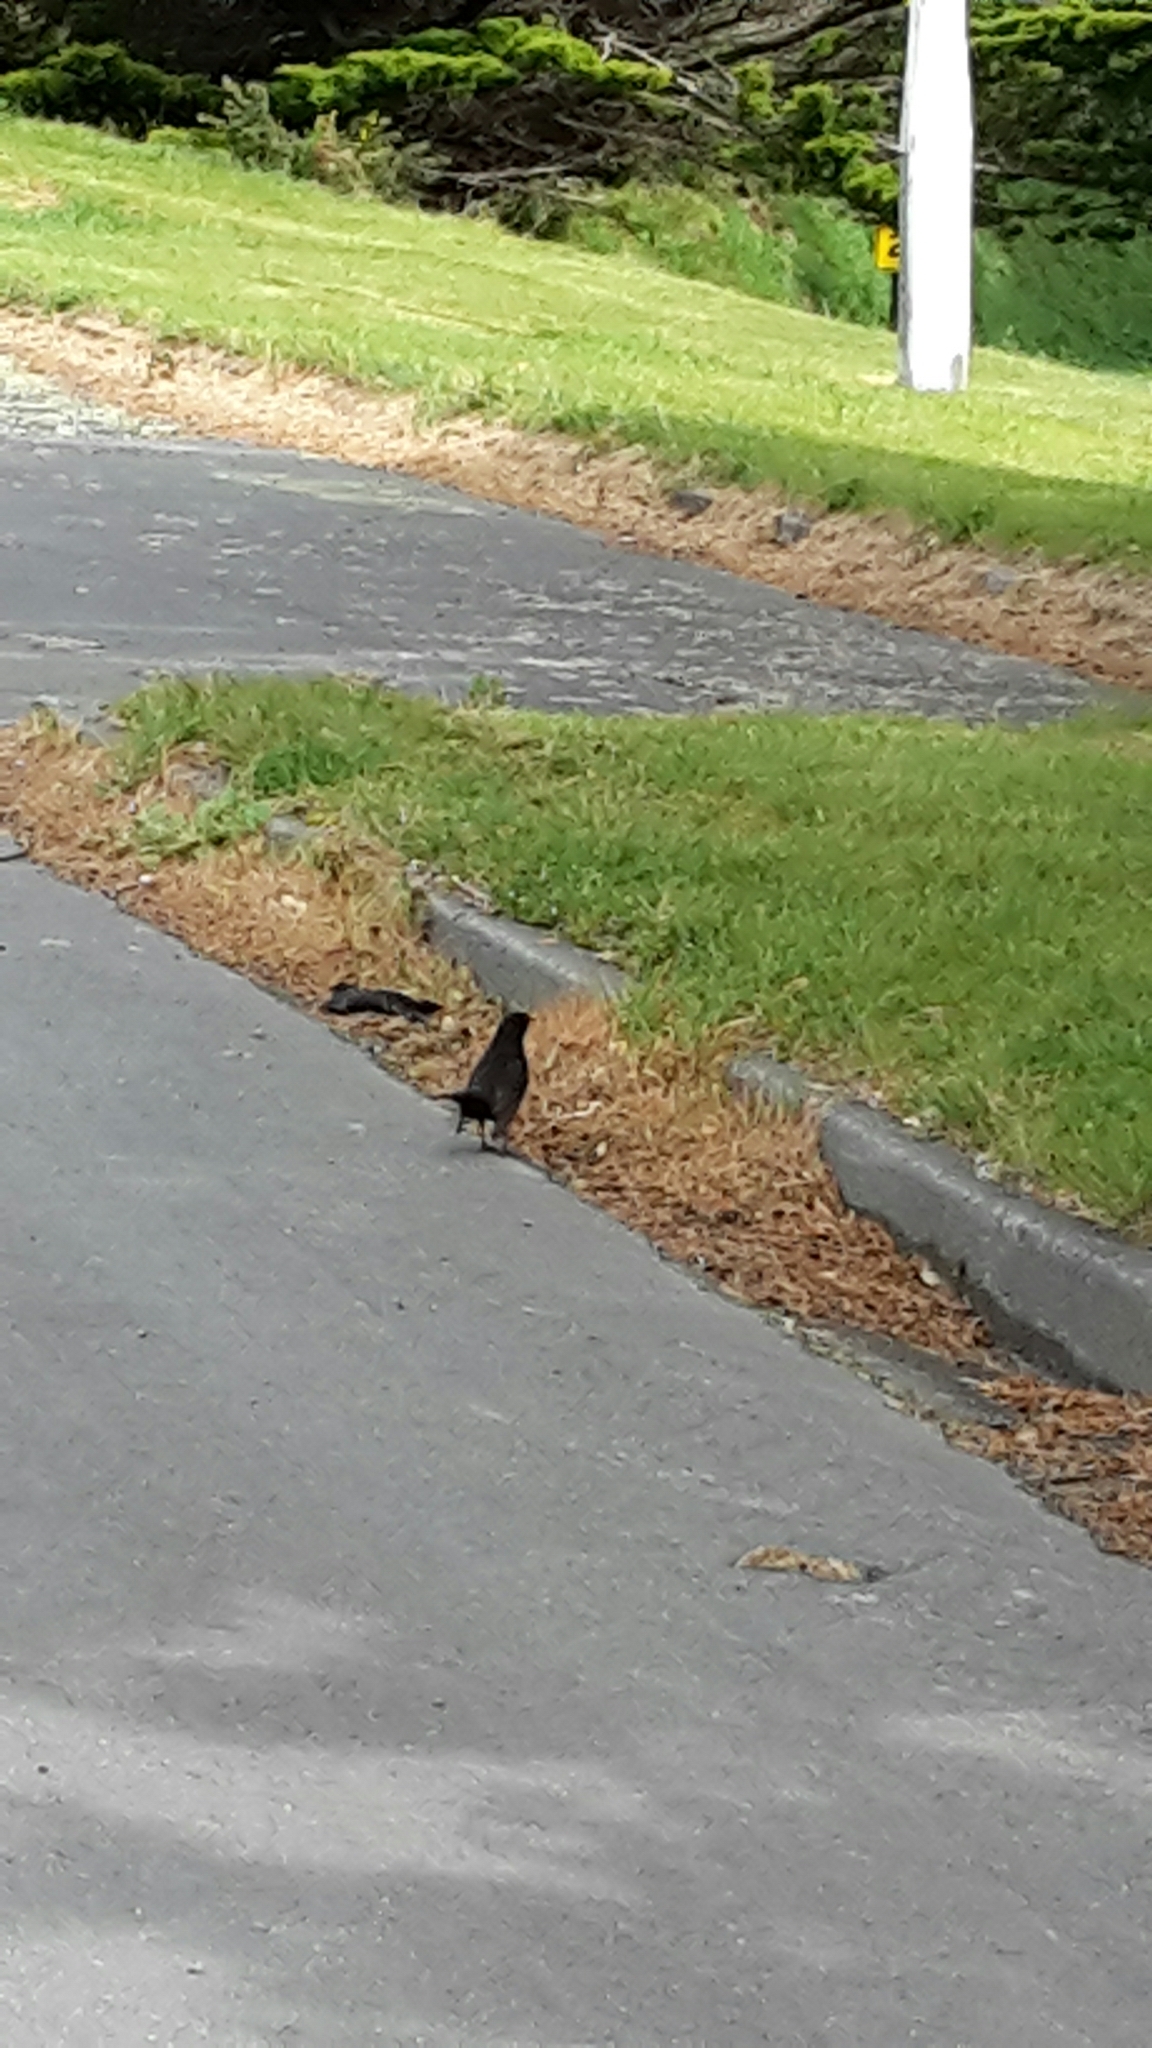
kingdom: Animalia
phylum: Chordata
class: Aves
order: Passeriformes
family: Turdidae
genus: Turdus
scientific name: Turdus merula
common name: Common blackbird
